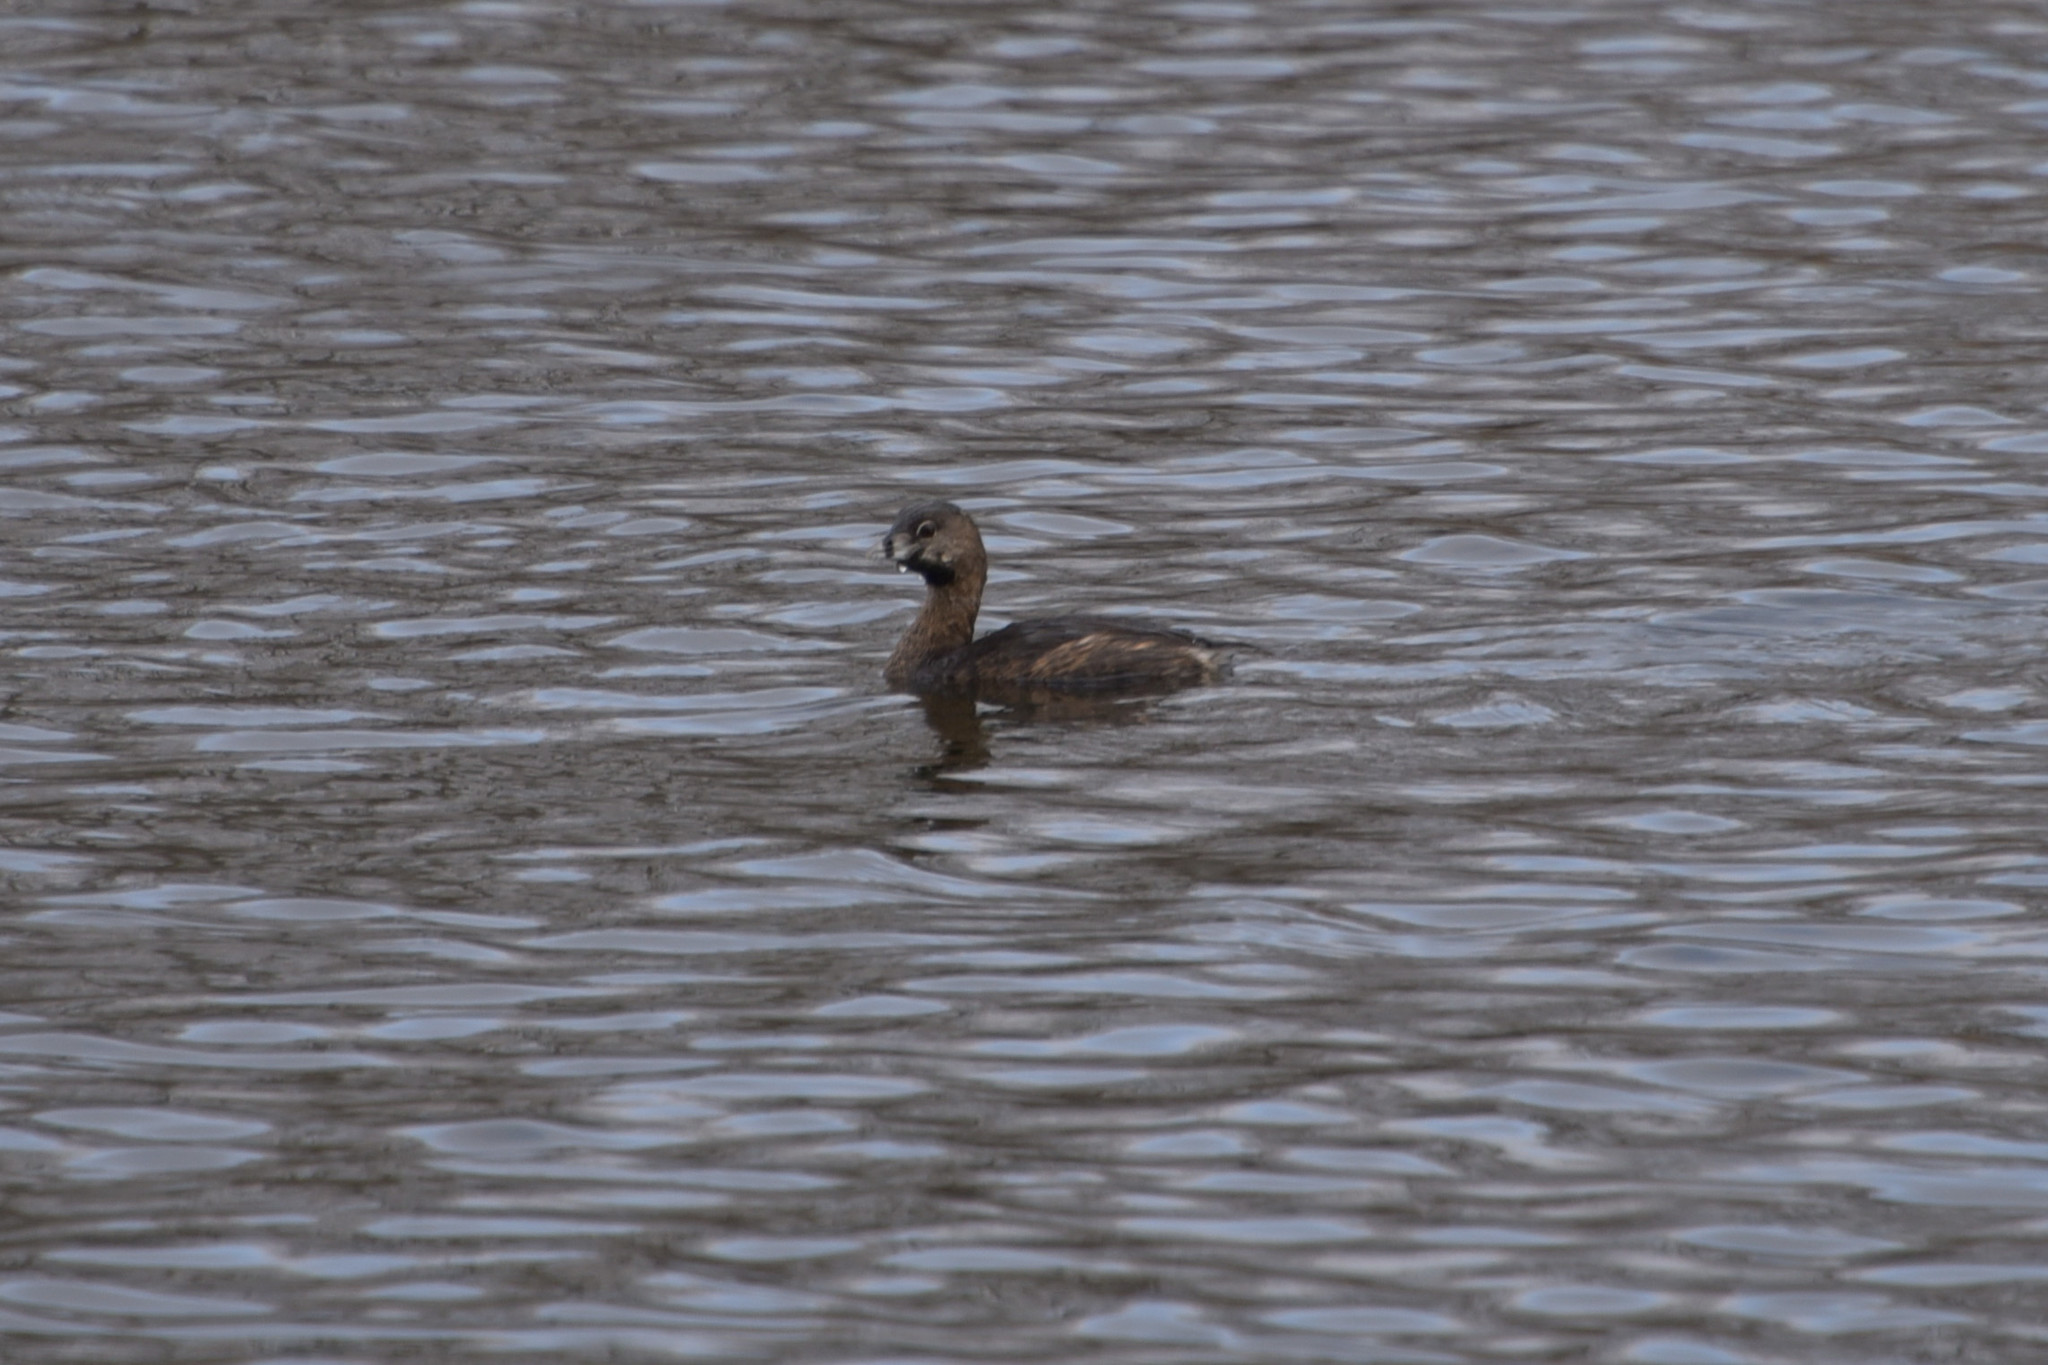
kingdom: Animalia
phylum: Chordata
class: Aves
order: Podicipediformes
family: Podicipedidae
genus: Podilymbus
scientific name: Podilymbus podiceps
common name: Pied-billed grebe
